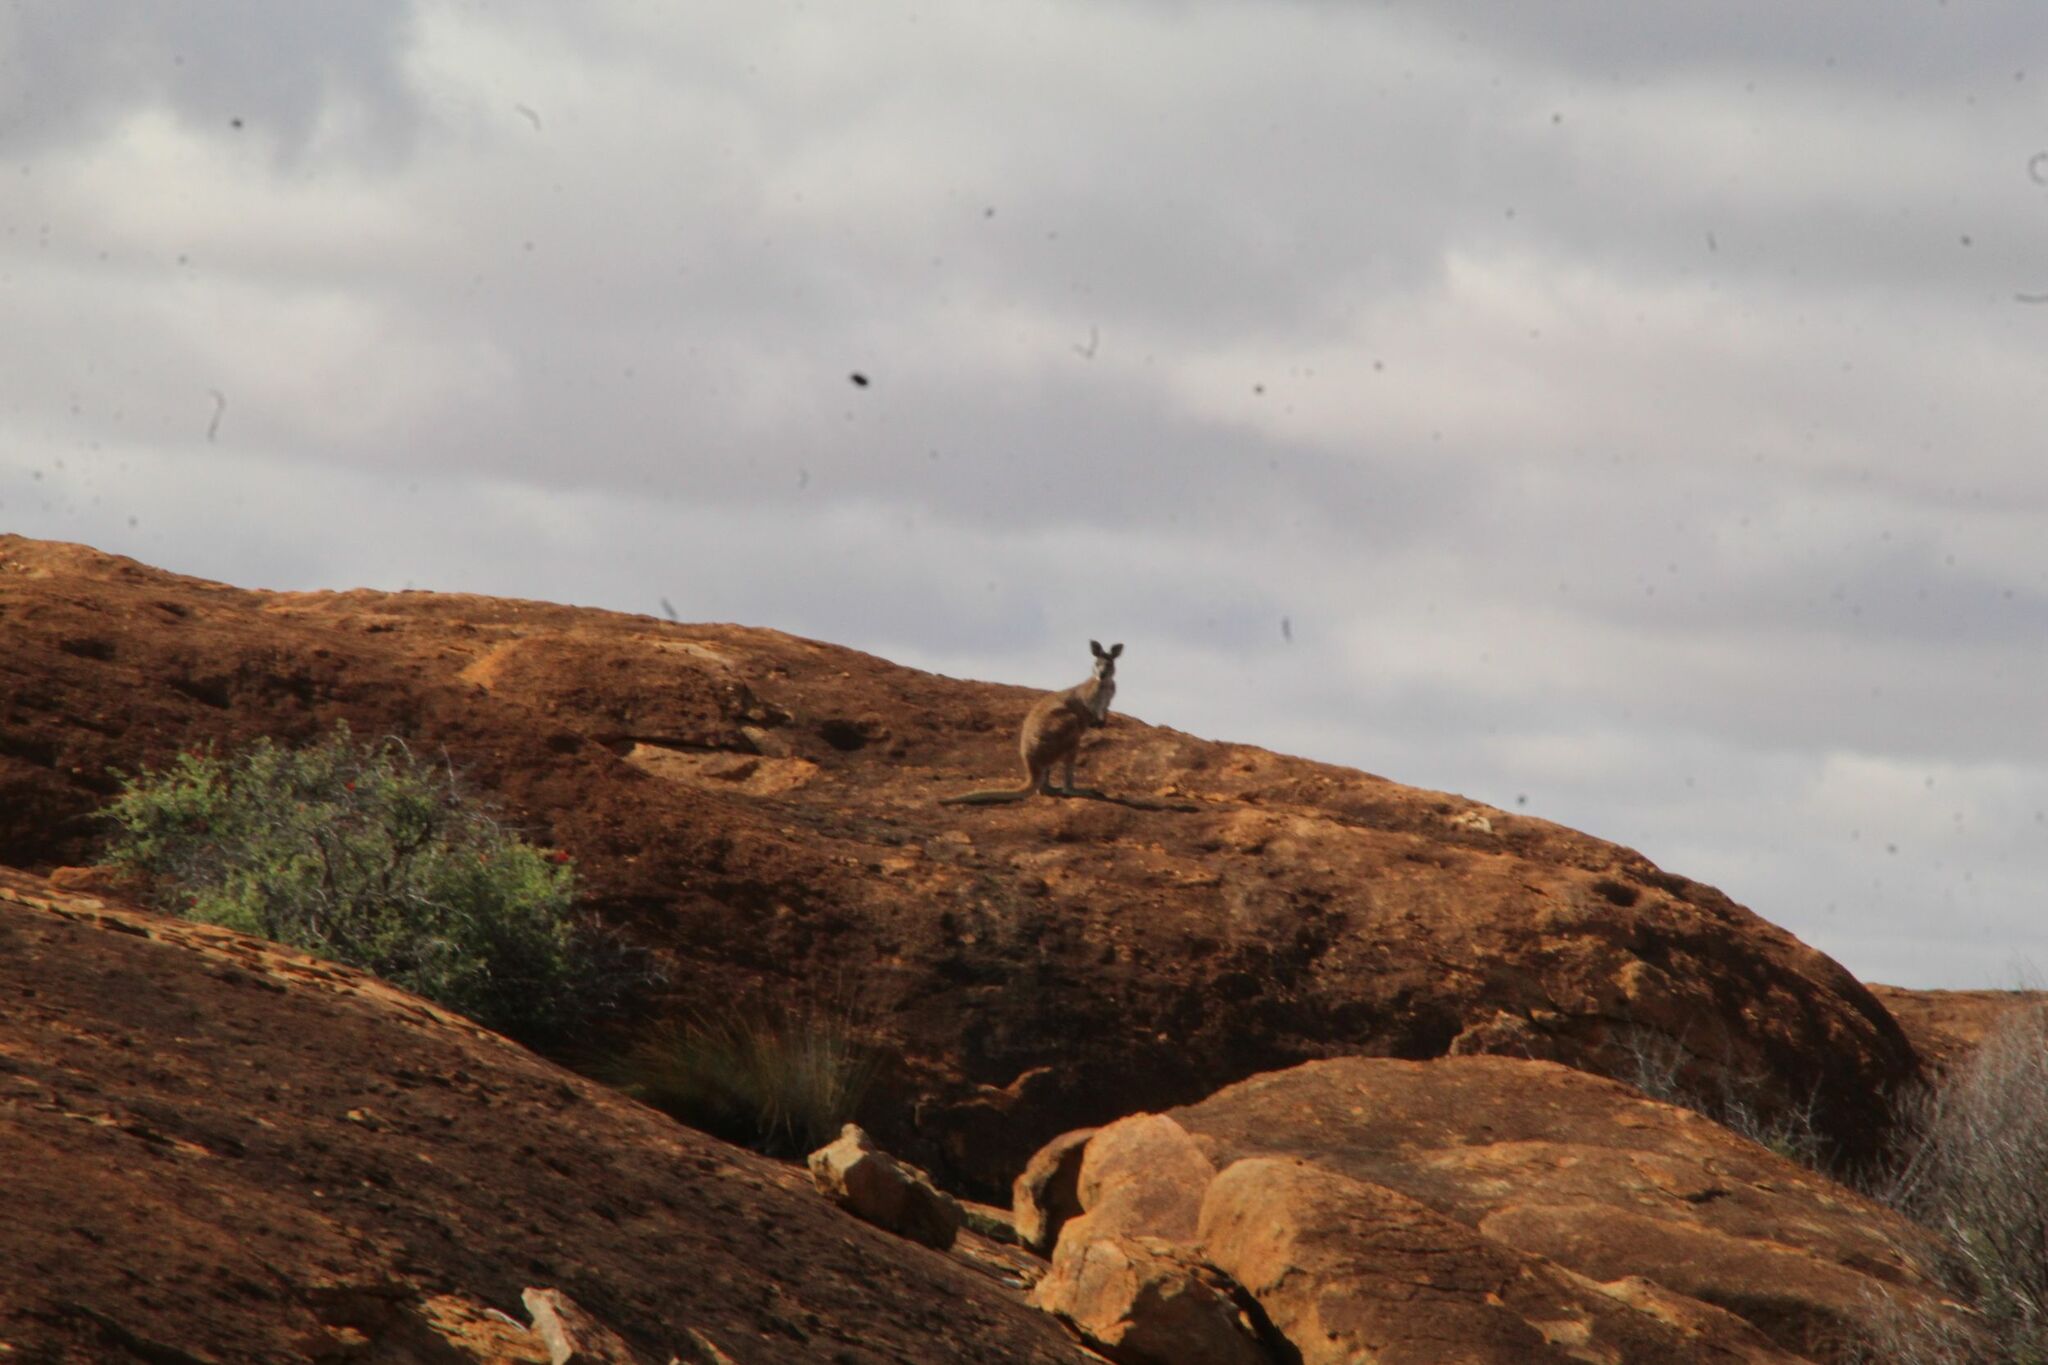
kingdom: Animalia
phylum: Chordata
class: Mammalia
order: Diprotodontia
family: Macropodidae
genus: Macropus
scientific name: Macropus robustus
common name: Eastern wallaroo
